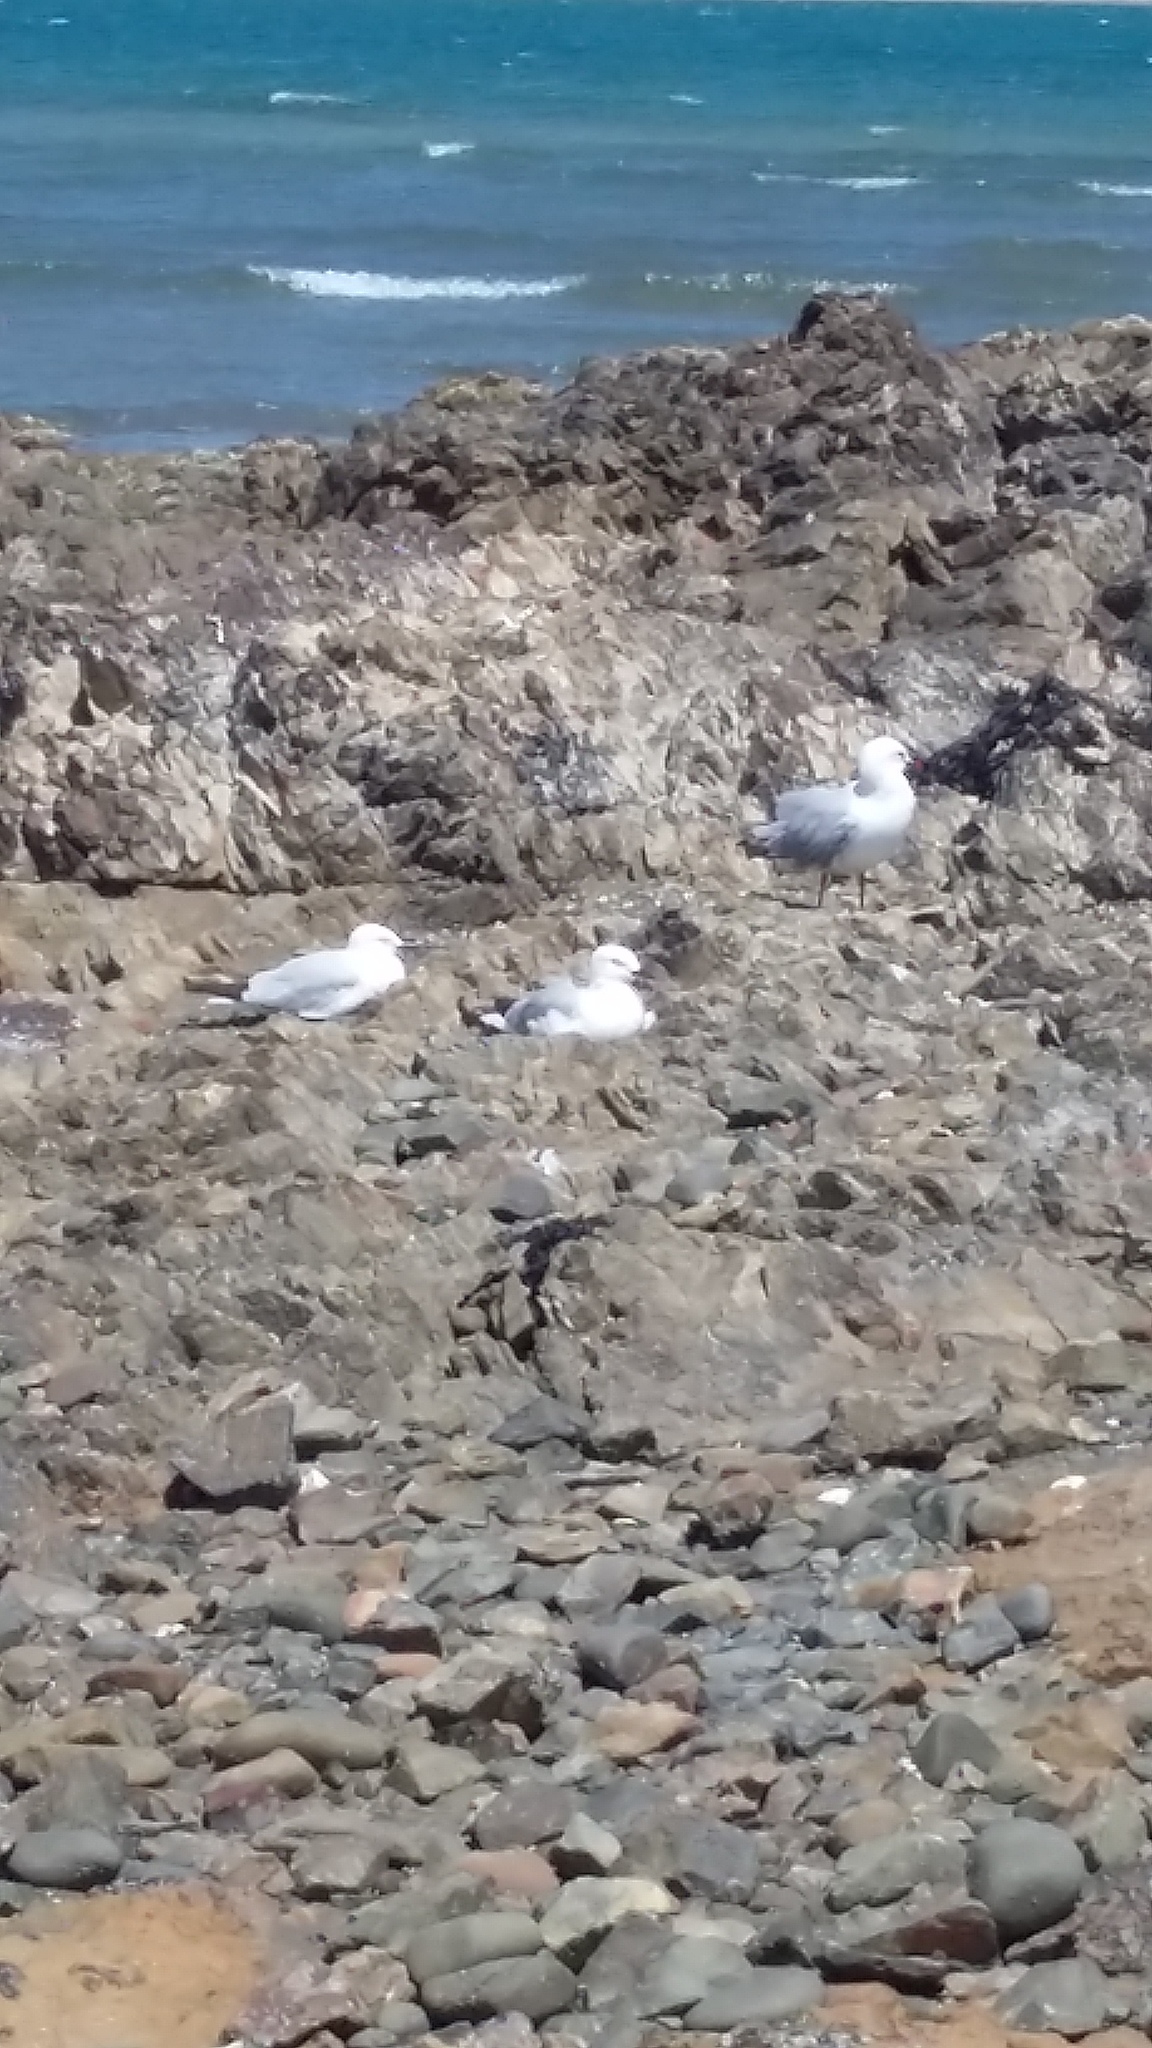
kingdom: Animalia
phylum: Chordata
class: Aves
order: Charadriiformes
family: Laridae
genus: Chroicocephalus
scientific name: Chroicocephalus novaehollandiae
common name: Silver gull
